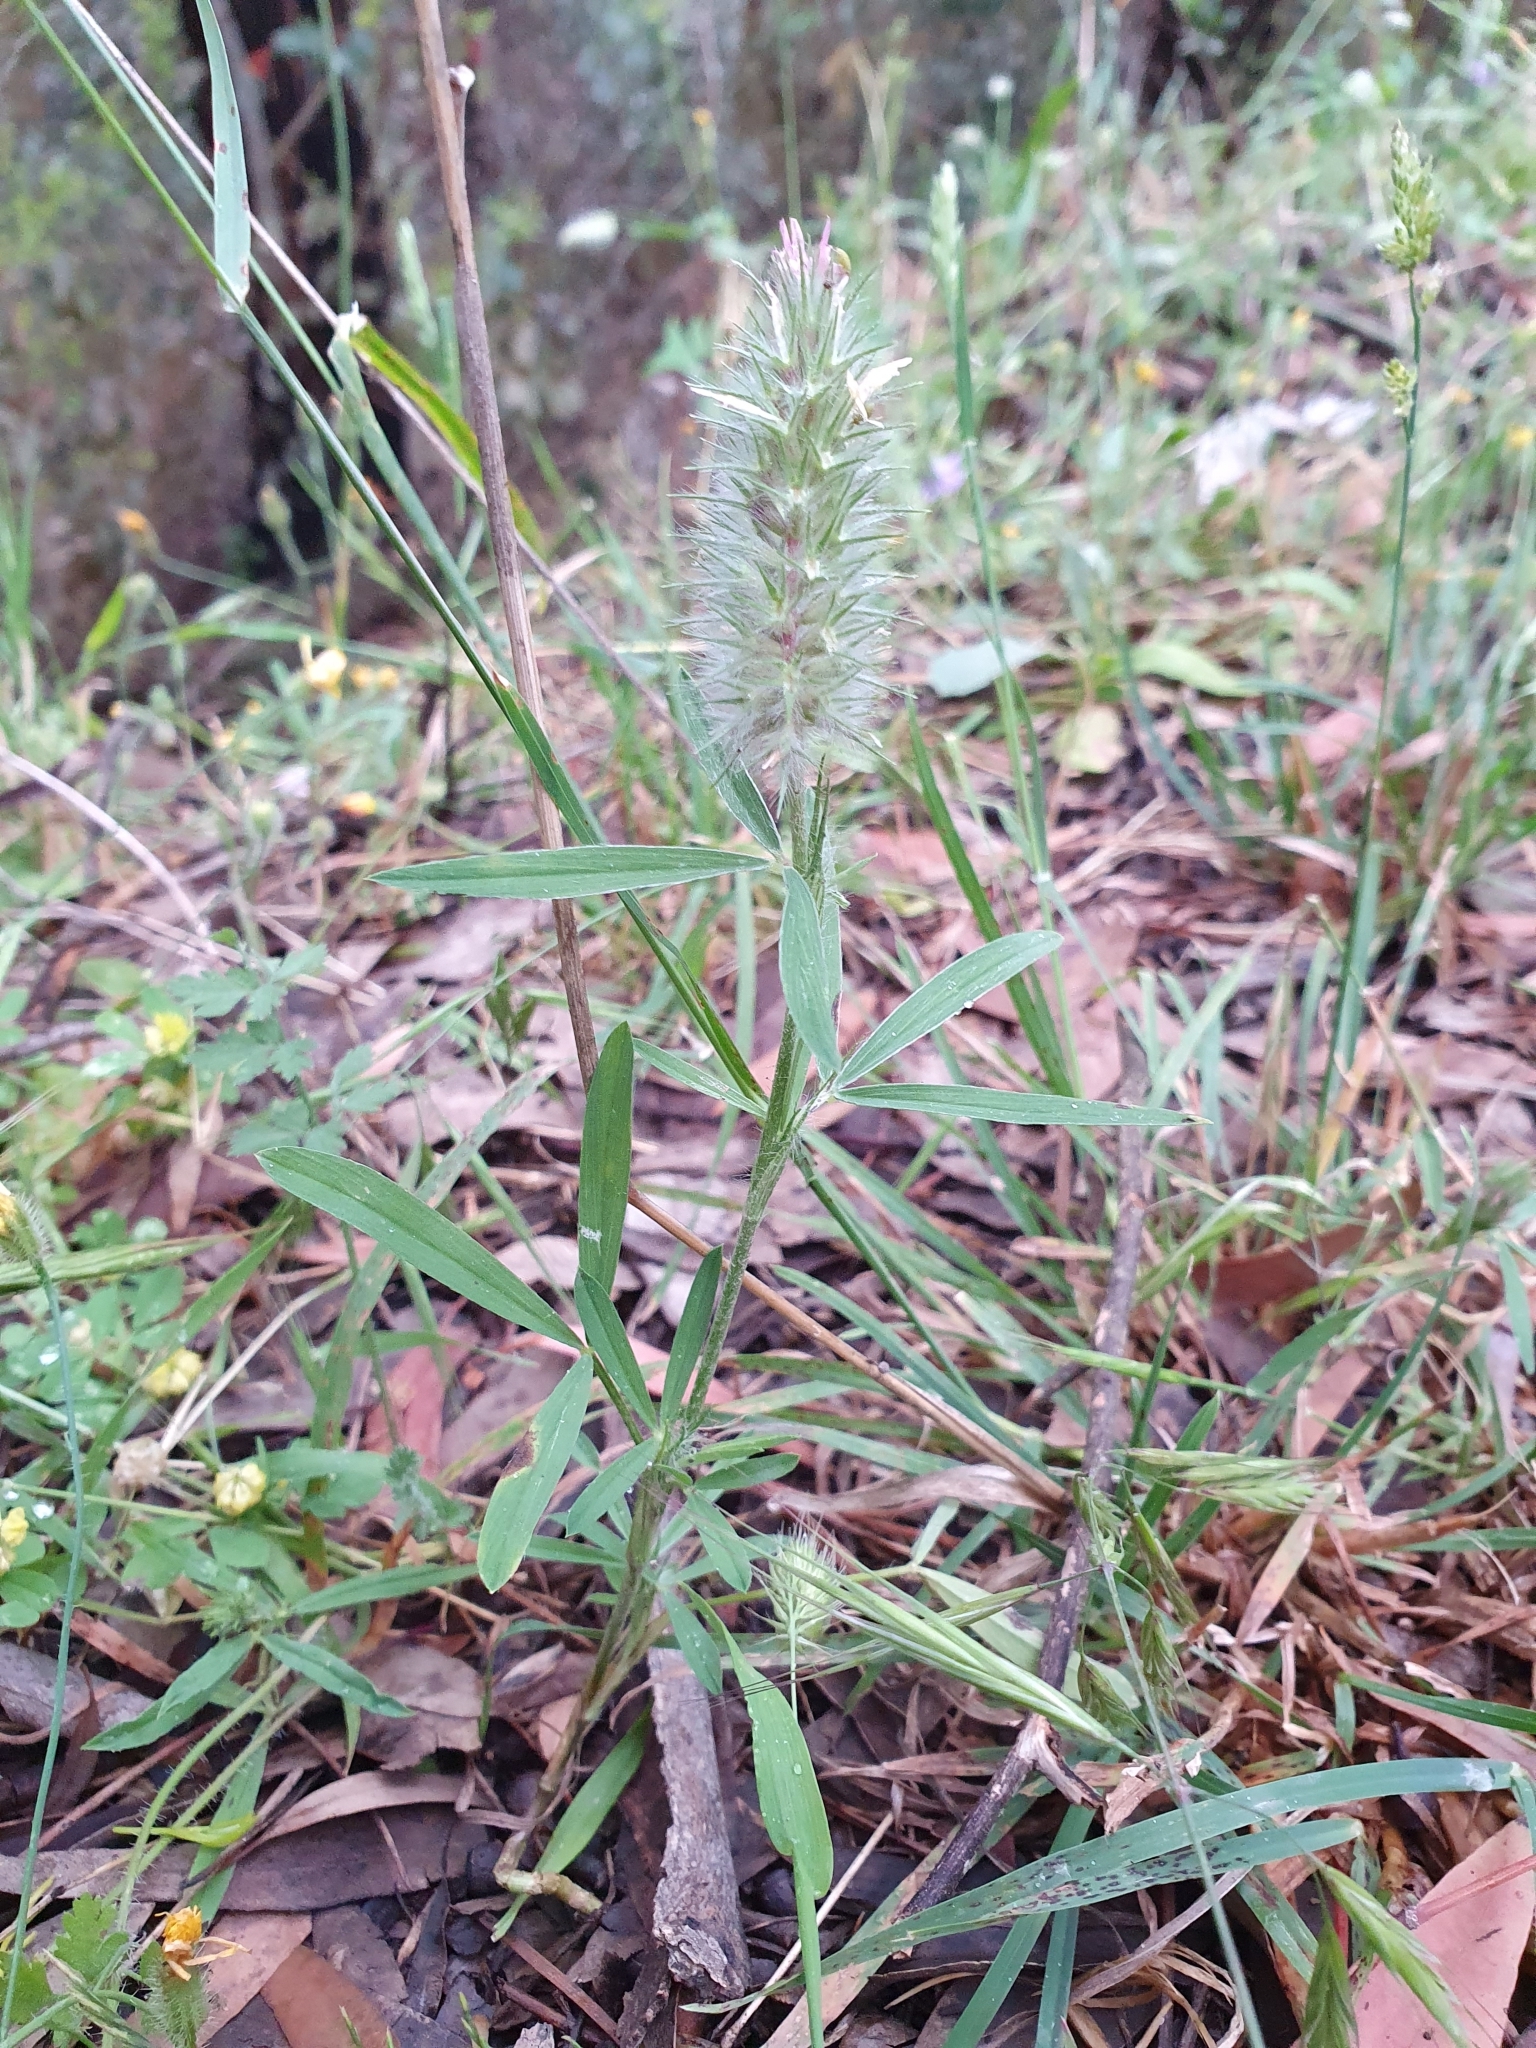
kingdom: Plantae
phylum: Tracheophyta
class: Magnoliopsida
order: Fabales
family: Fabaceae
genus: Trifolium
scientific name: Trifolium angustifolium
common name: Narrow clover
